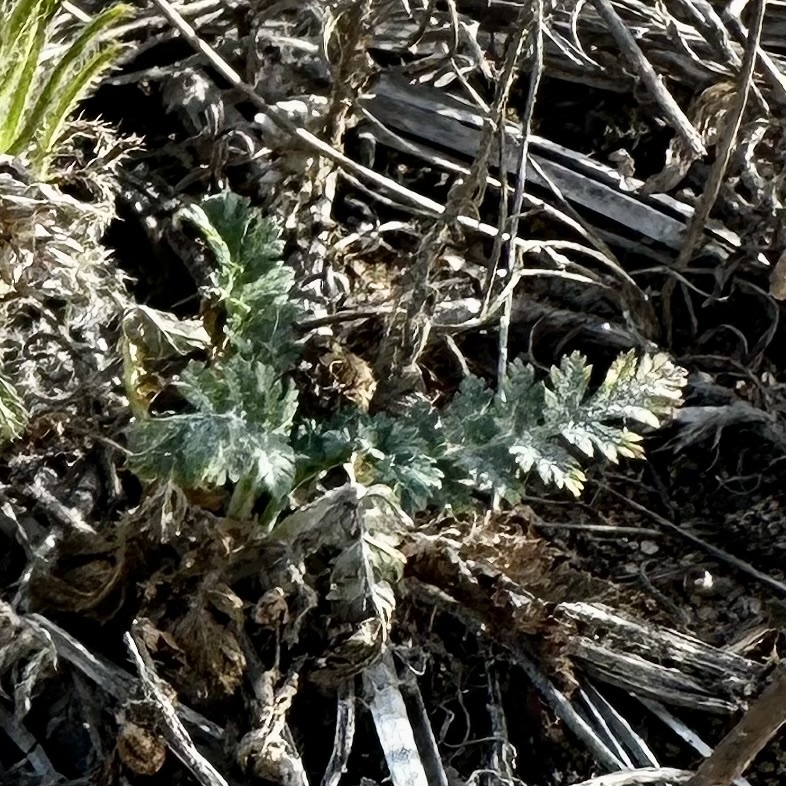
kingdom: Plantae
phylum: Tracheophyta
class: Magnoliopsida
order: Geraniales
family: Geraniaceae
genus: Erodium
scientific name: Erodium cicutarium
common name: Common stork's-bill
